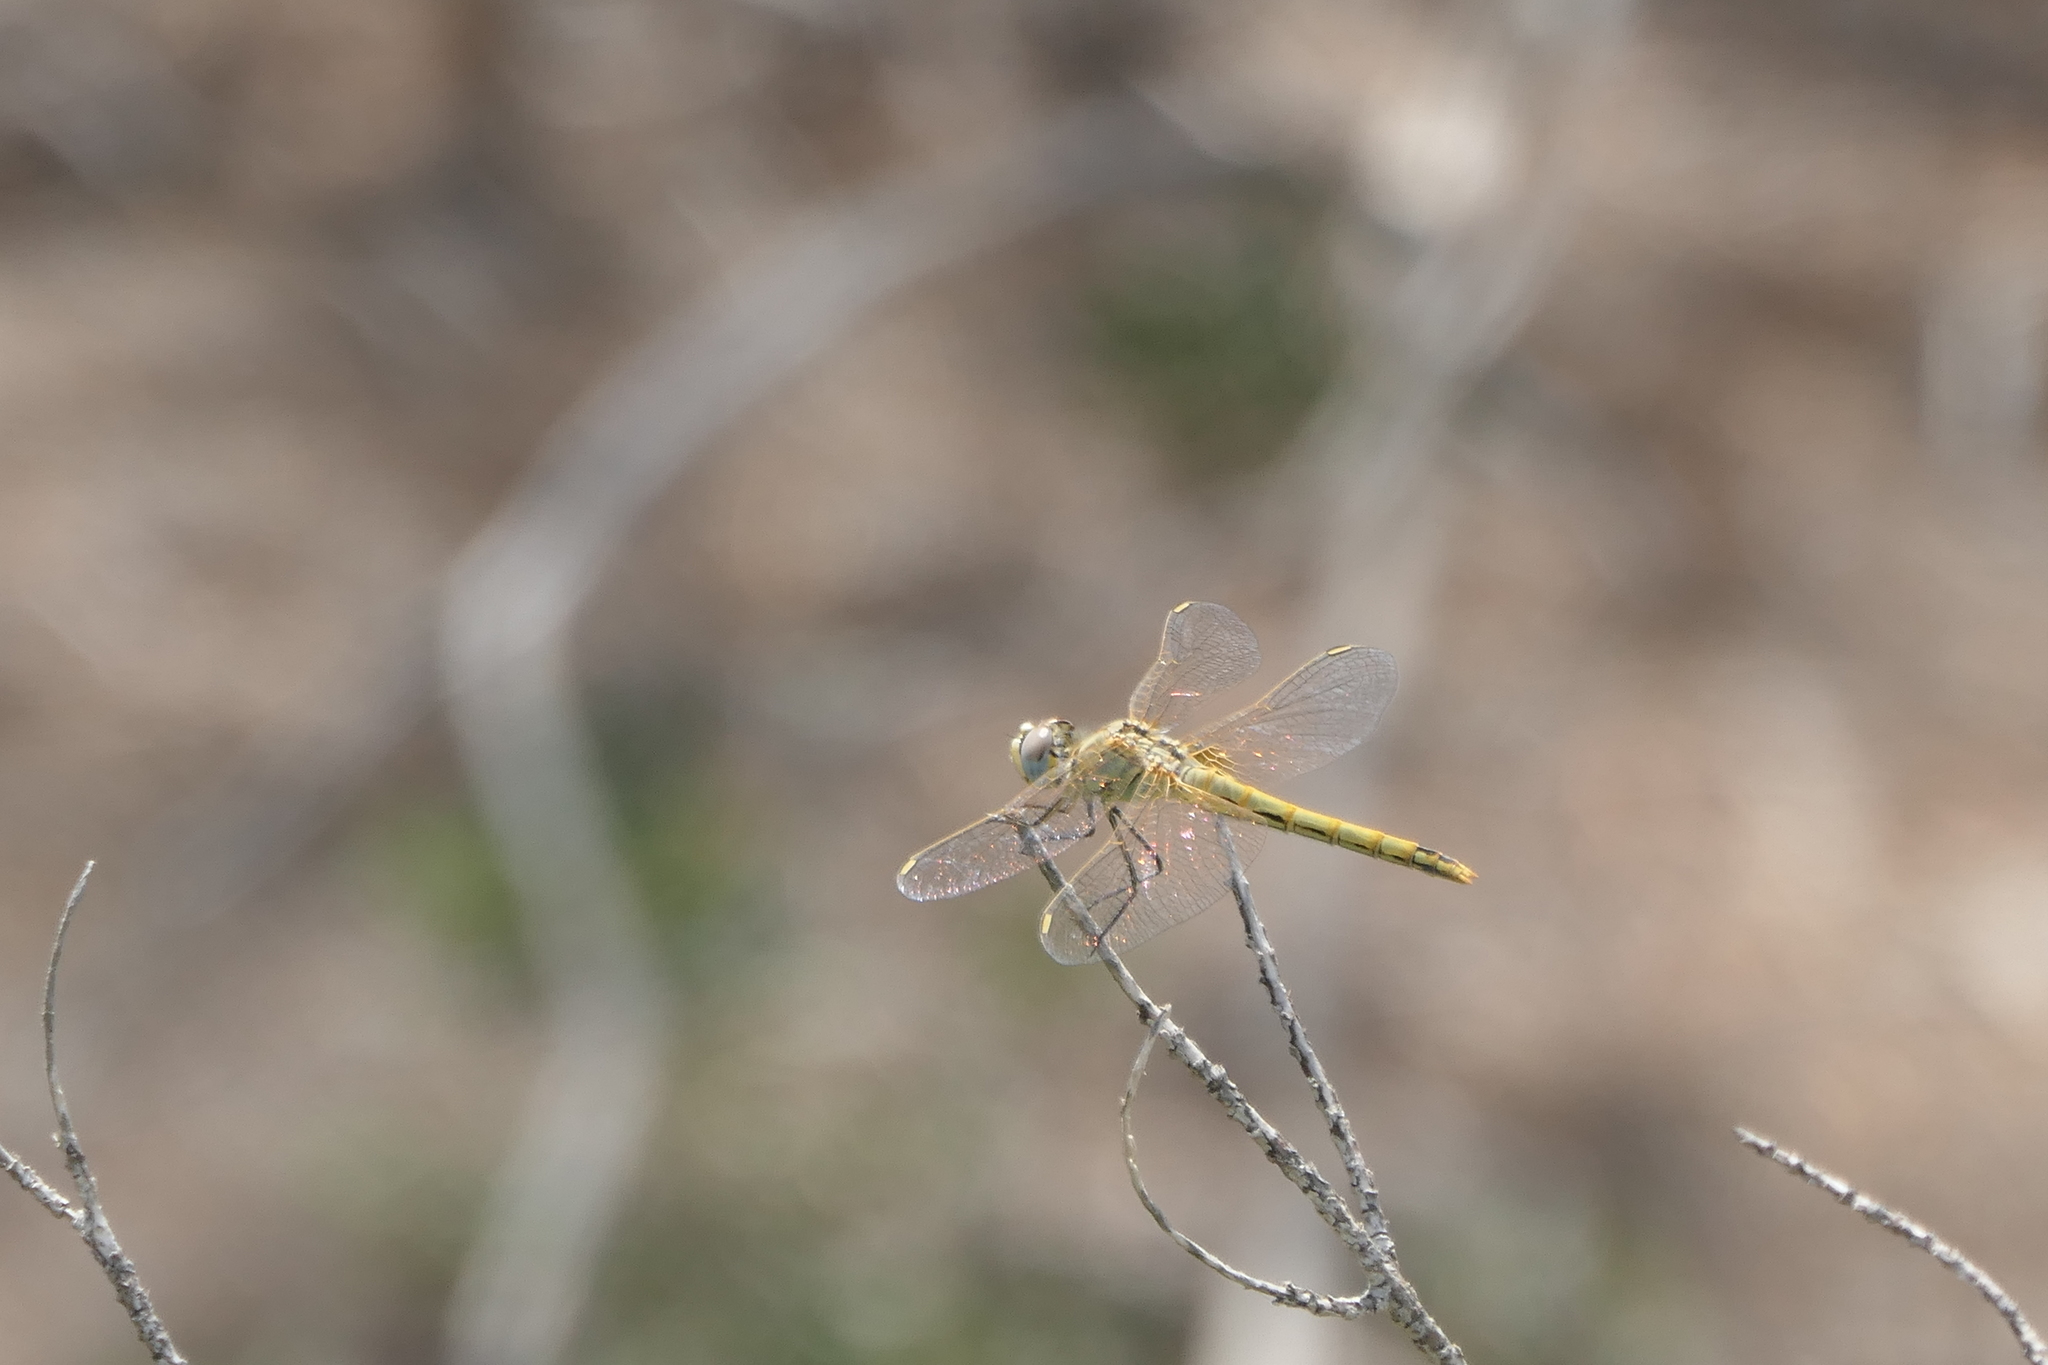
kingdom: Animalia
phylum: Arthropoda
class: Insecta
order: Odonata
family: Libellulidae
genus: Sympetrum
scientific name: Sympetrum fonscolombii
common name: Red-veined darter
